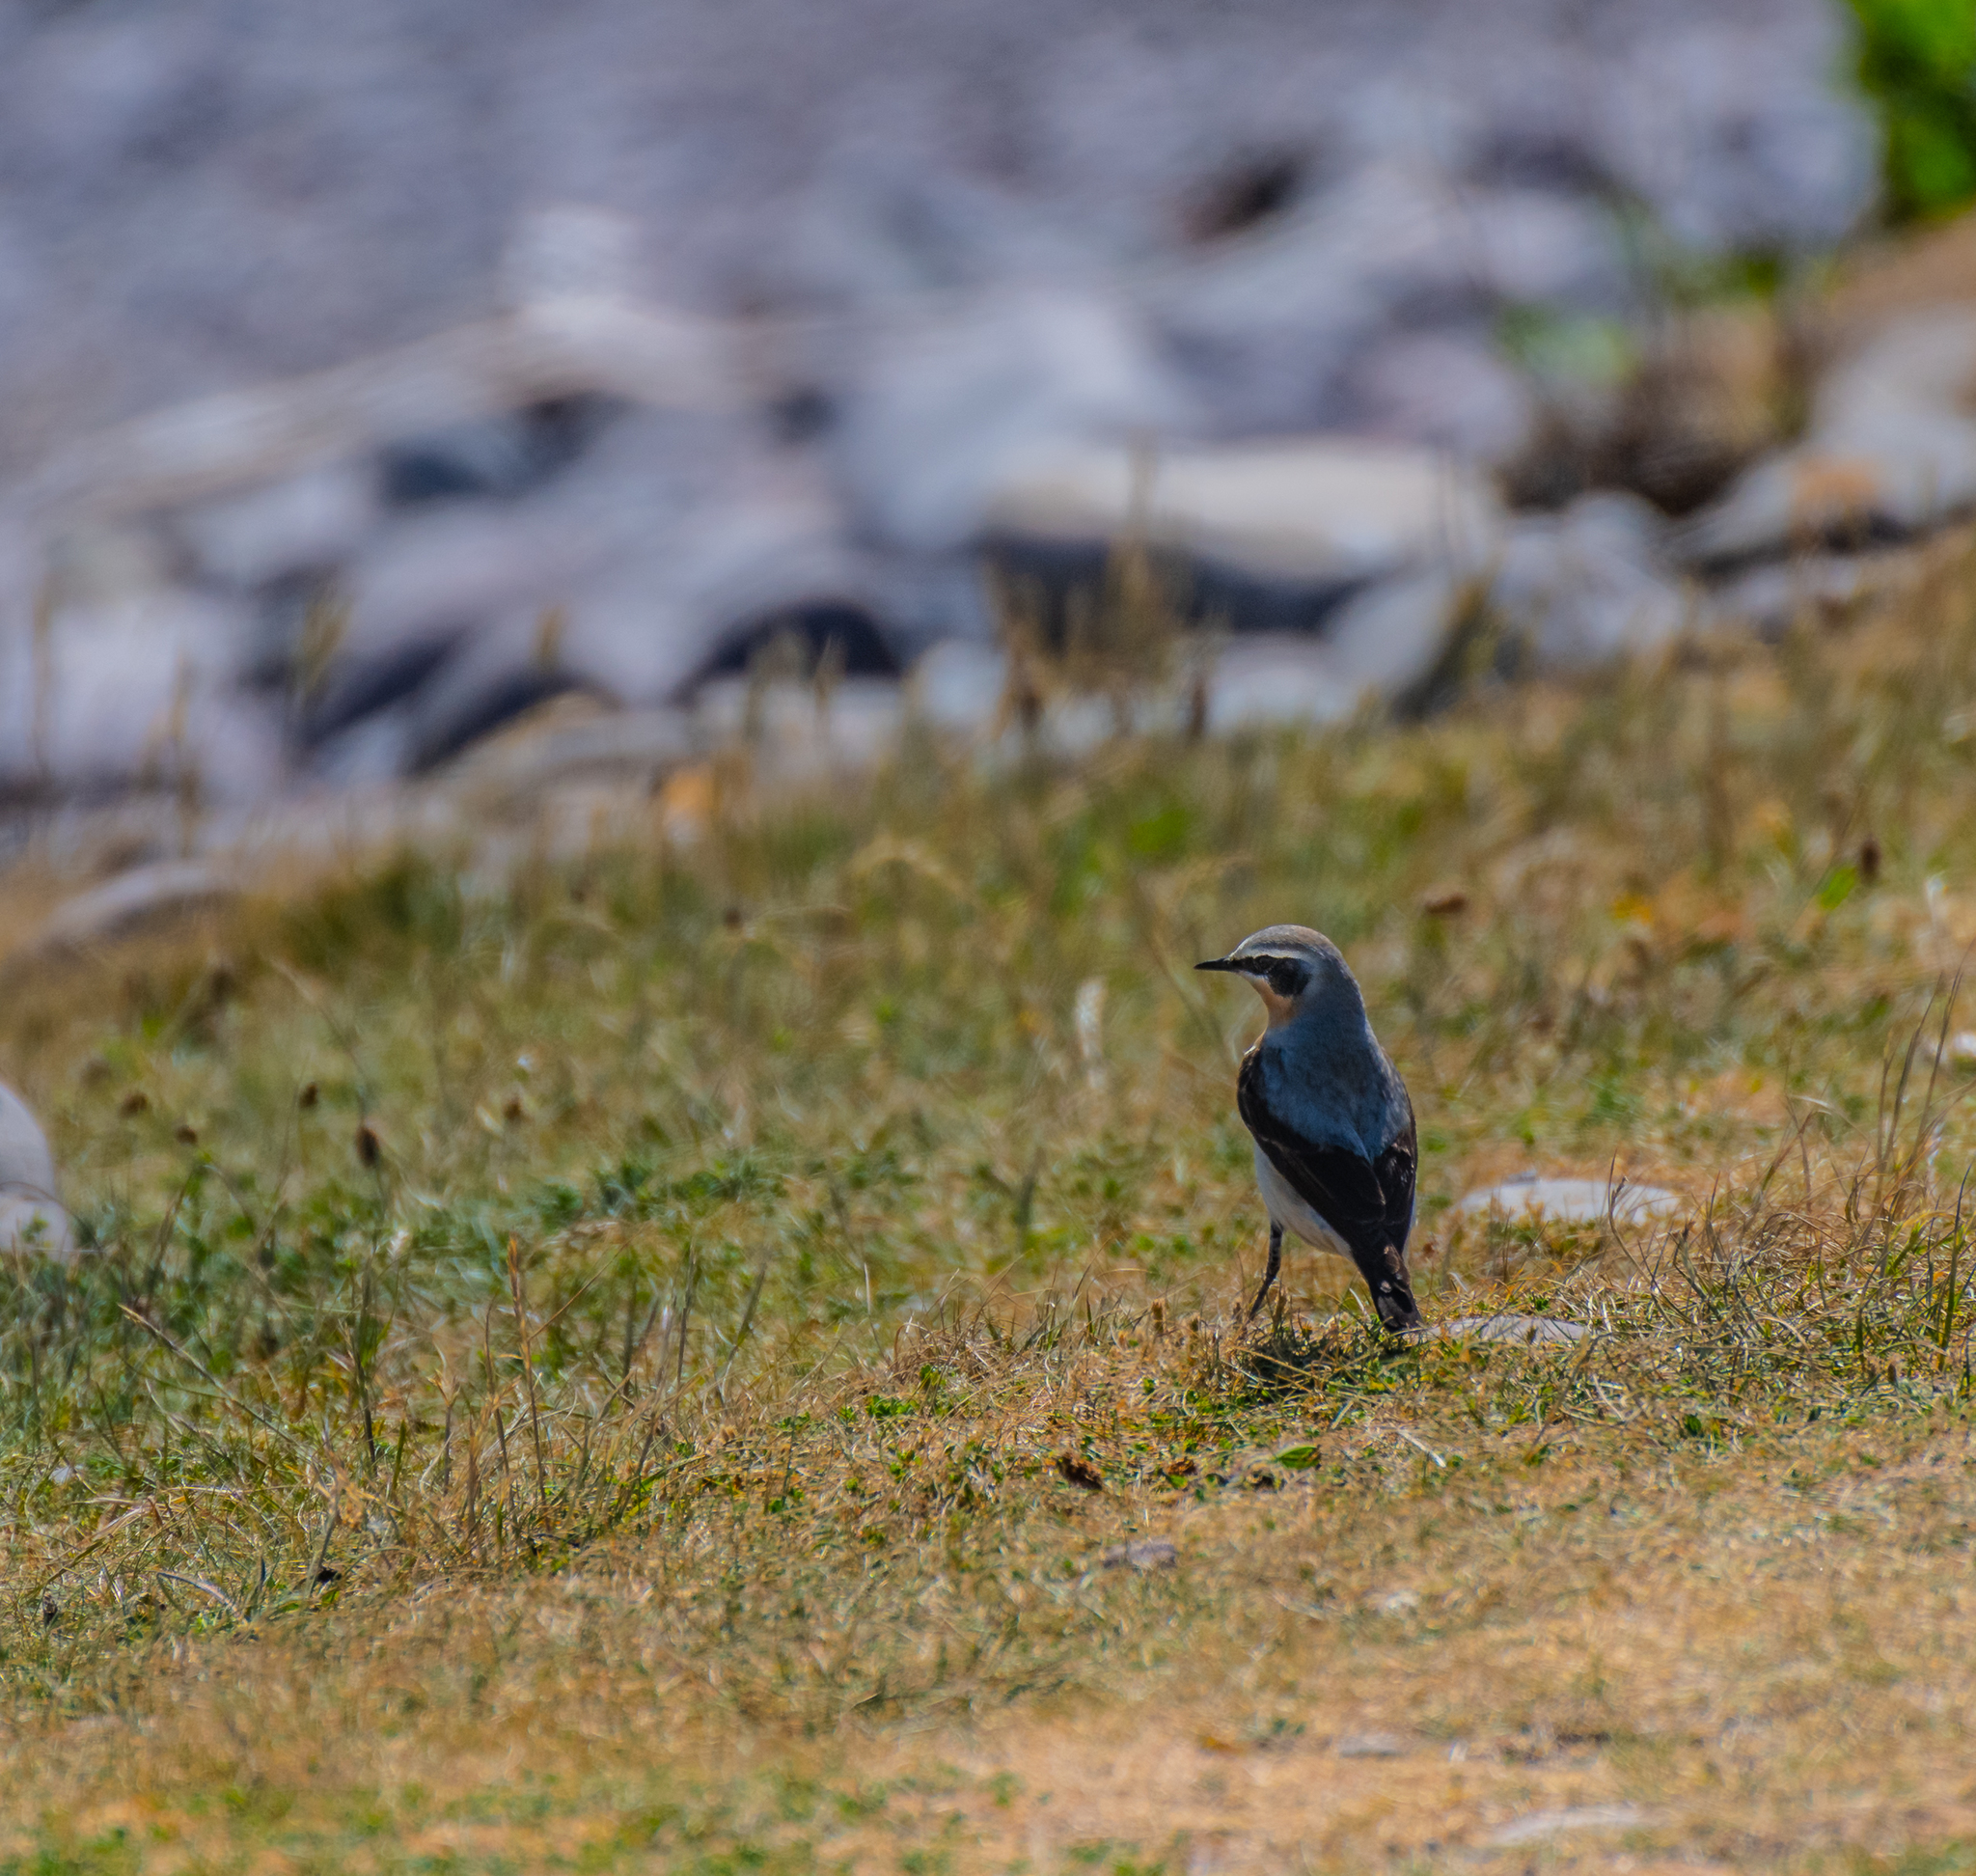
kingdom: Animalia
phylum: Chordata
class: Aves
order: Passeriformes
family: Muscicapidae
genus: Oenanthe
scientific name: Oenanthe oenanthe
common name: Northern wheatear
